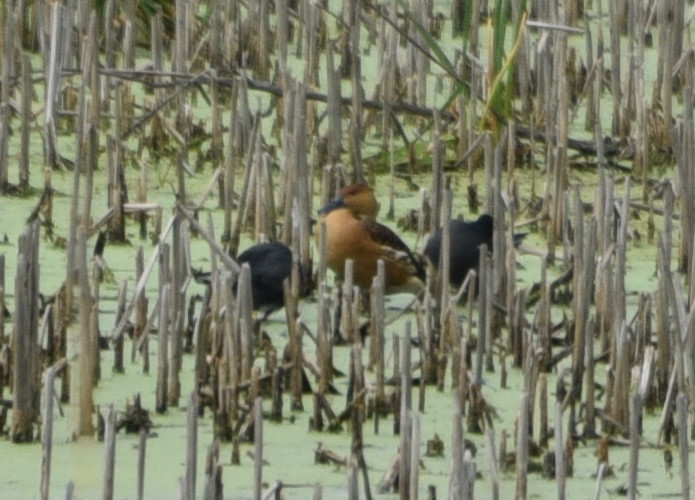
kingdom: Animalia
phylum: Chordata
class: Aves
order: Anseriformes
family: Anatidae
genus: Dendrocygna
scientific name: Dendrocygna bicolor
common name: Fulvous whistling duck
